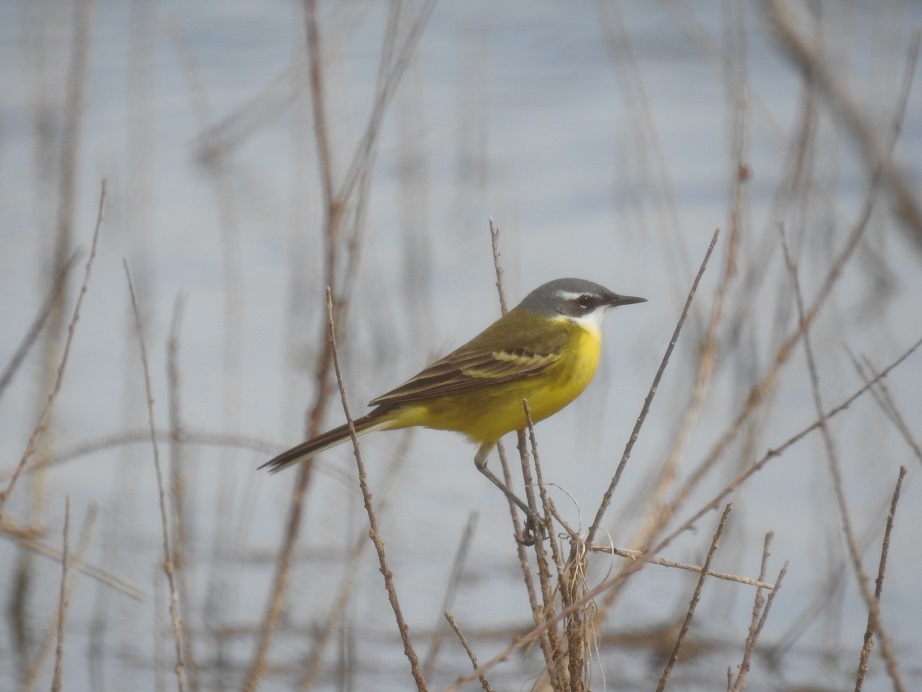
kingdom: Animalia
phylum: Chordata
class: Aves
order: Passeriformes
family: Motacillidae
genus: Motacilla
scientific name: Motacilla flava
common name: Western yellow wagtail
